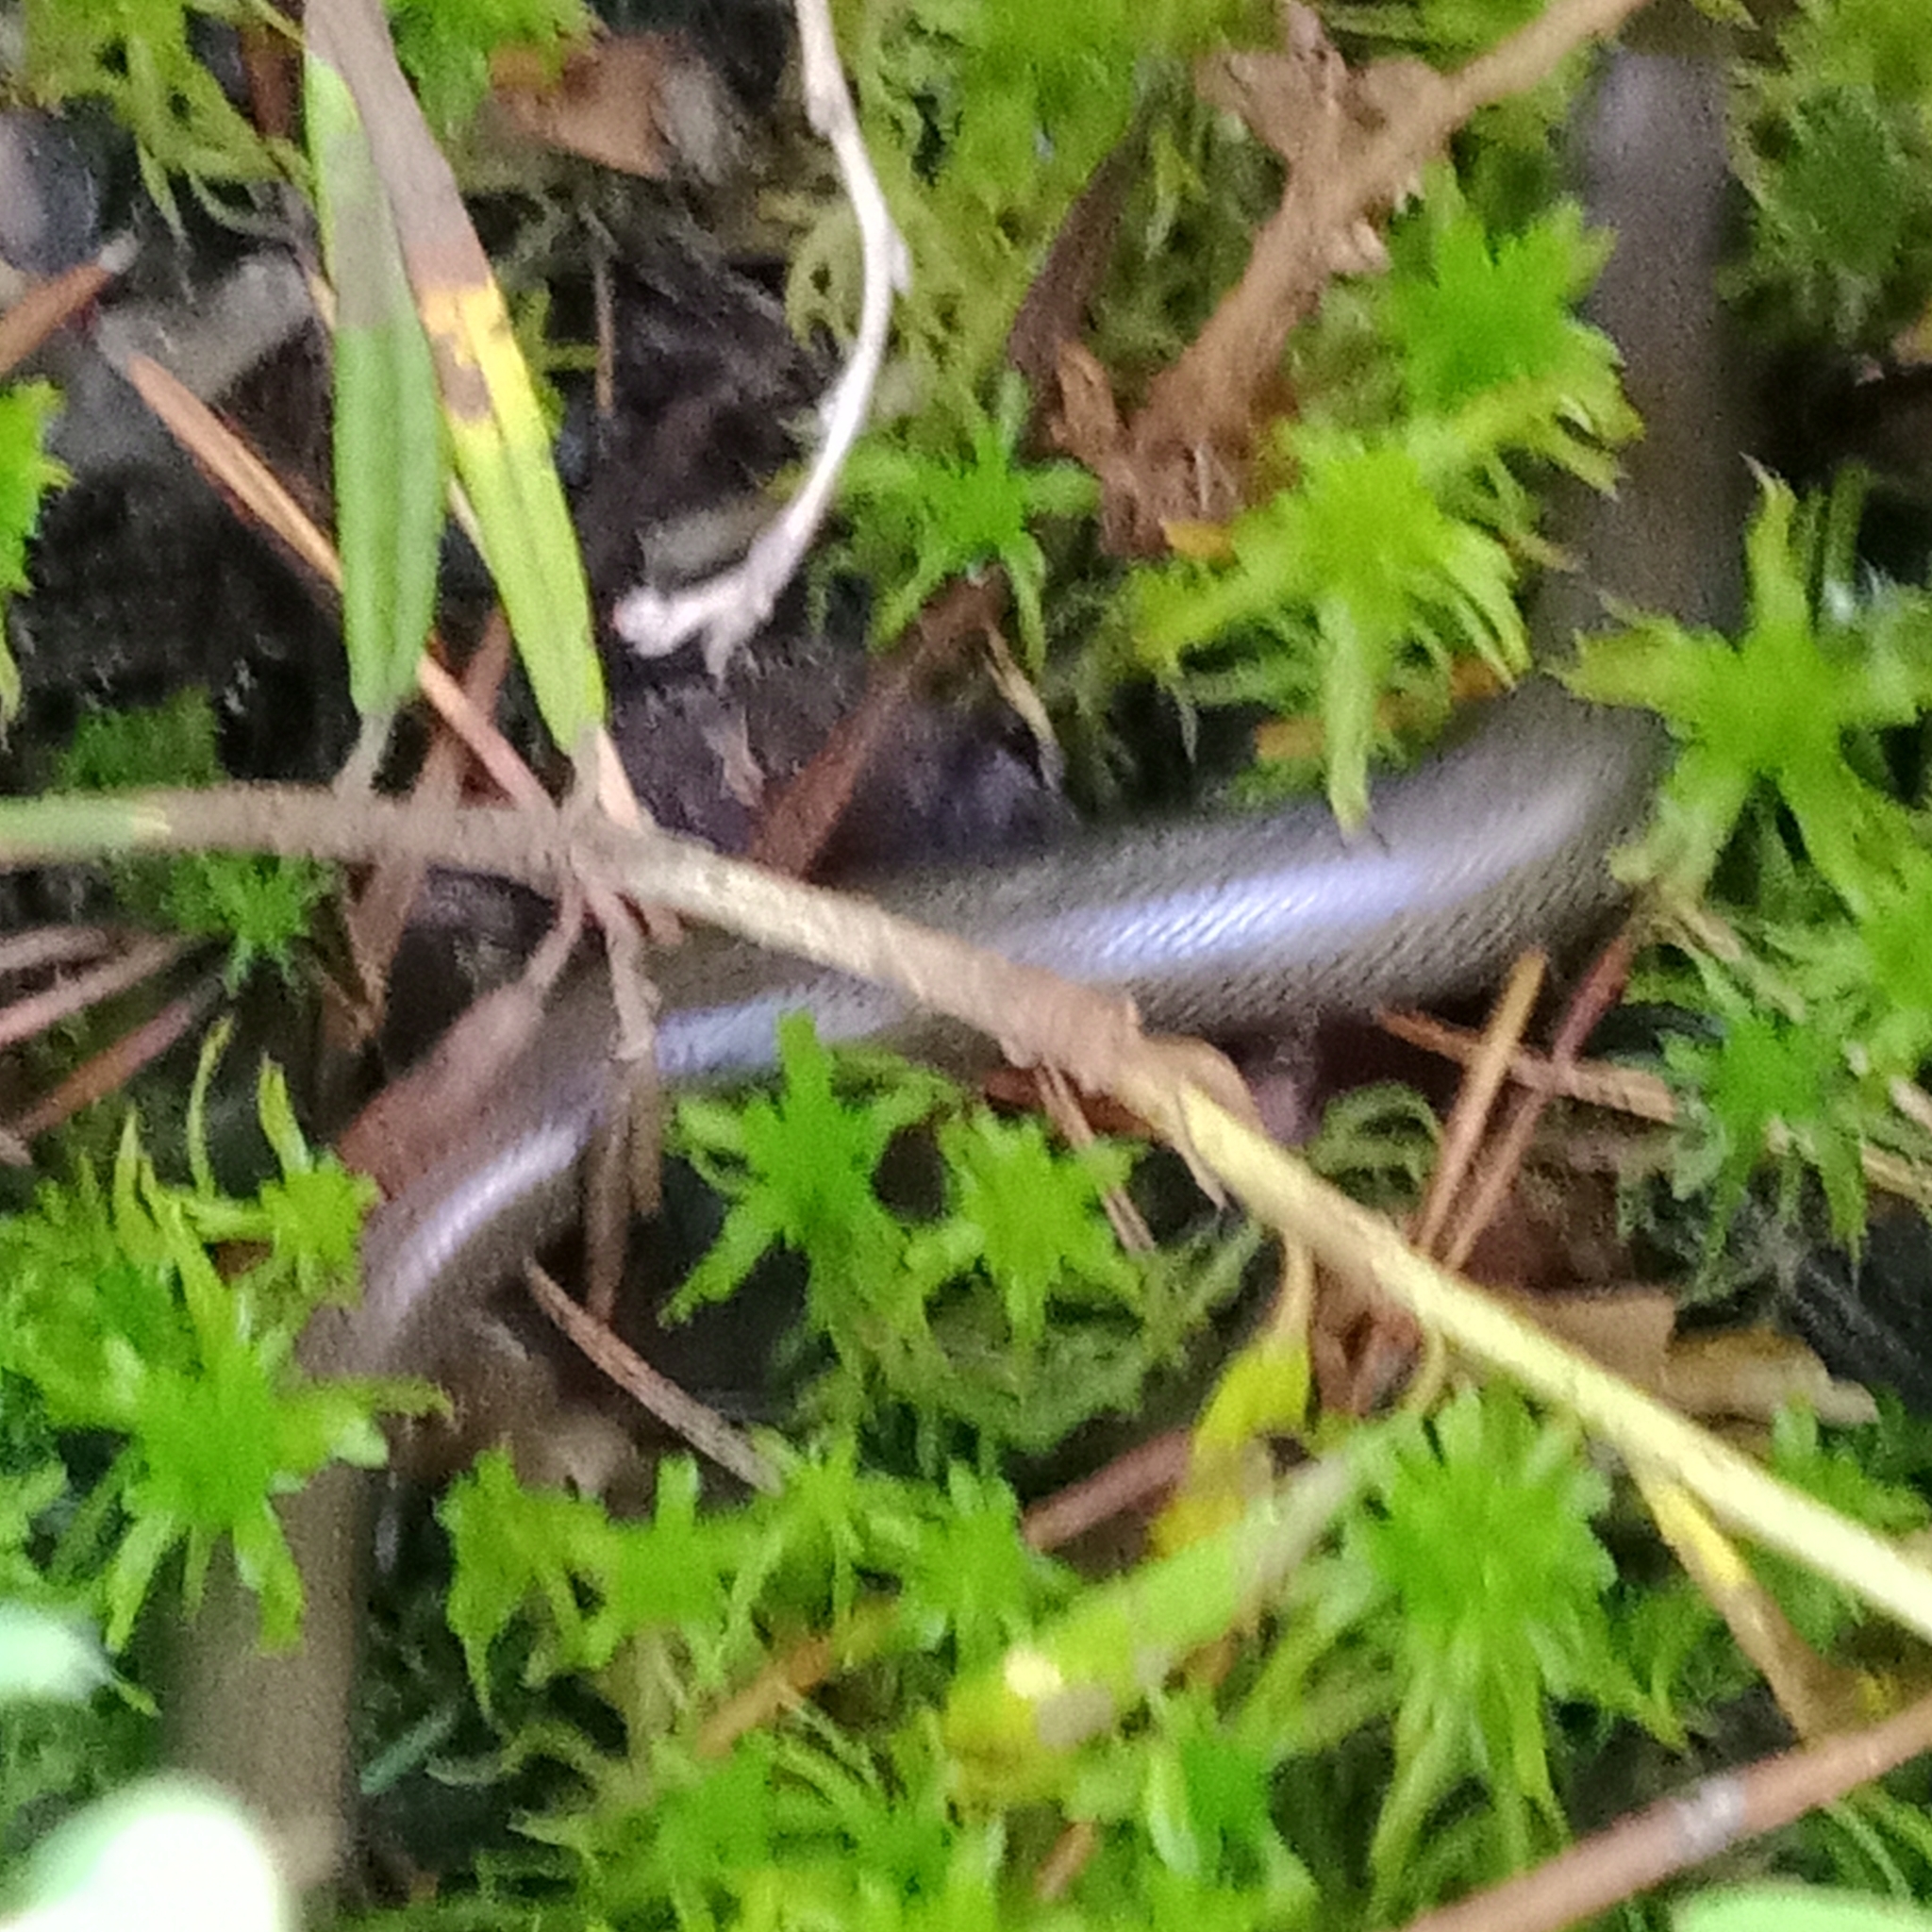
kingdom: Animalia
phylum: Chordata
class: Squamata
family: Anguidae
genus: Anguis
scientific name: Anguis colchica
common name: Slow worm
